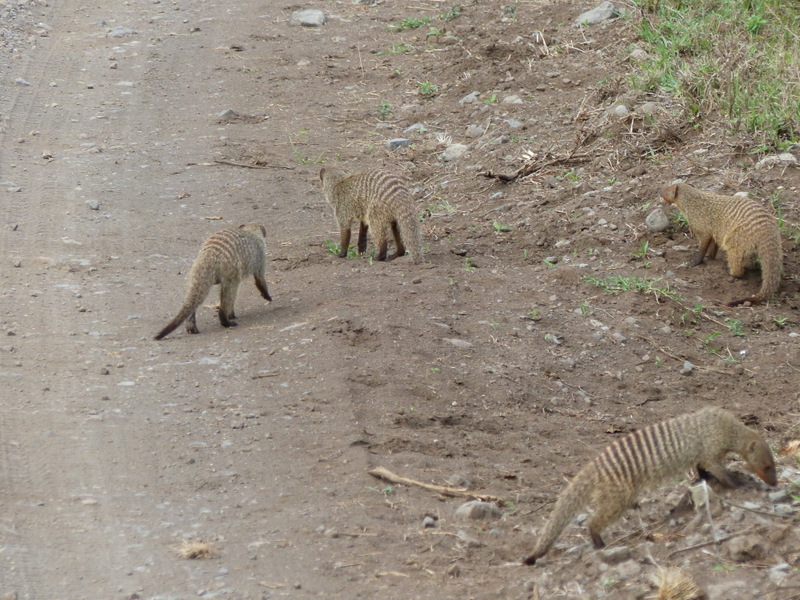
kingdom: Animalia
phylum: Chordata
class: Mammalia
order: Carnivora
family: Herpestidae
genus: Mungos
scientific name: Mungos mungo
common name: Banded mongoose
